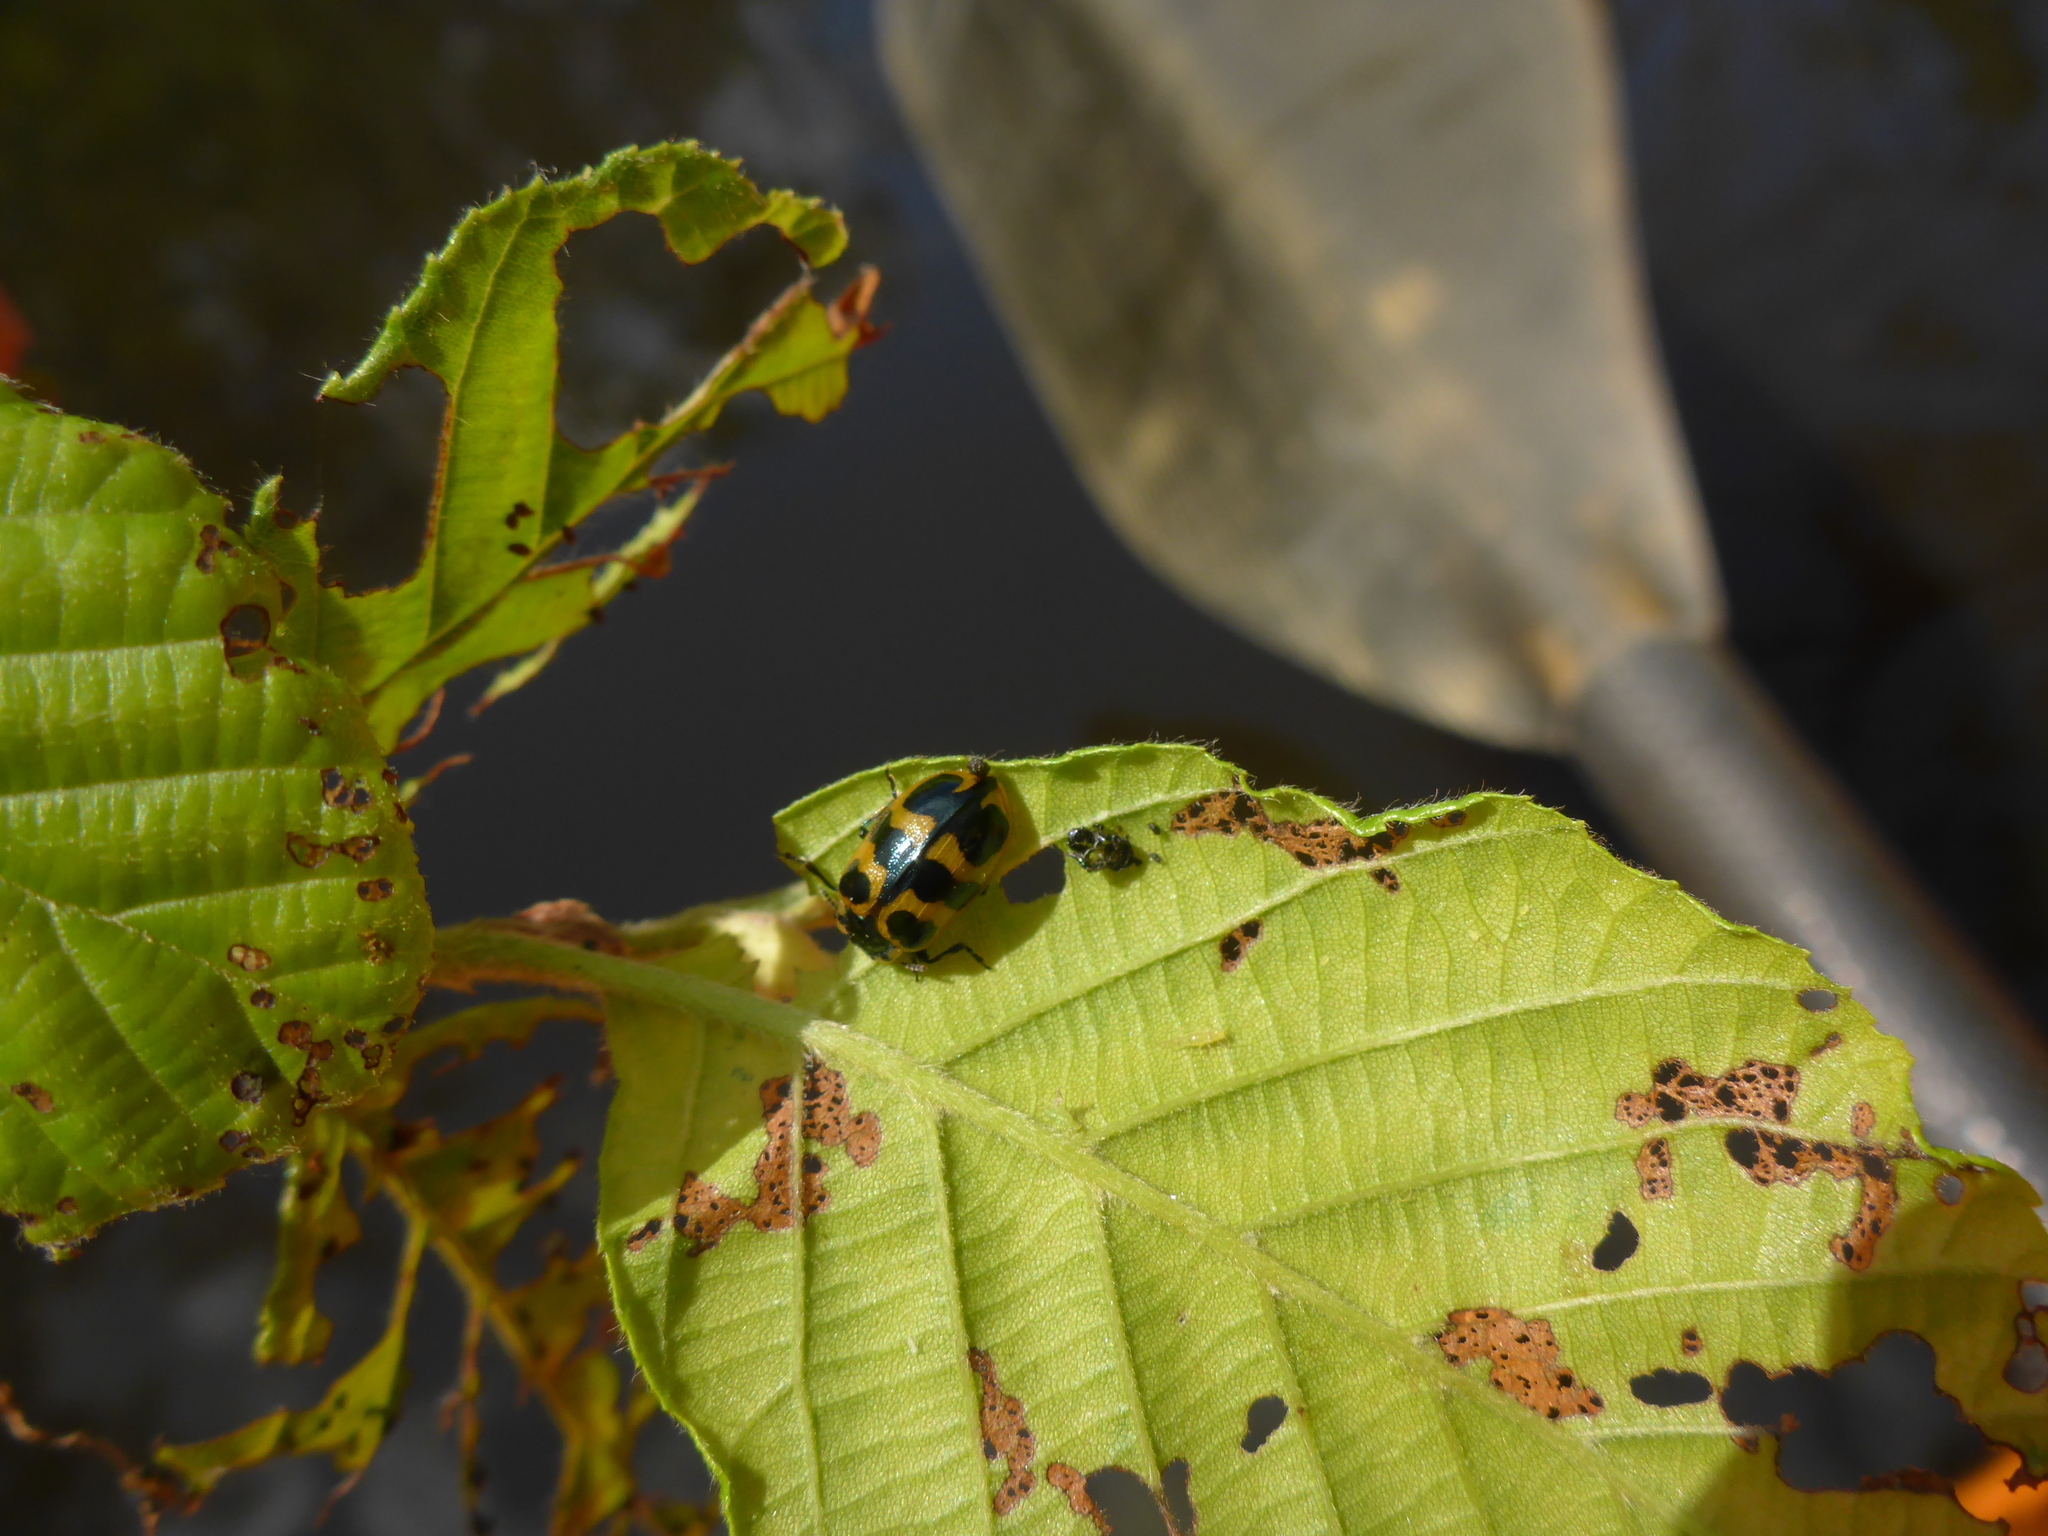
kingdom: Animalia
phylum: Arthropoda
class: Insecta
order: Coleoptera
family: Chrysomelidae
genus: Chrysomela
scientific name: Chrysomela interrupta
